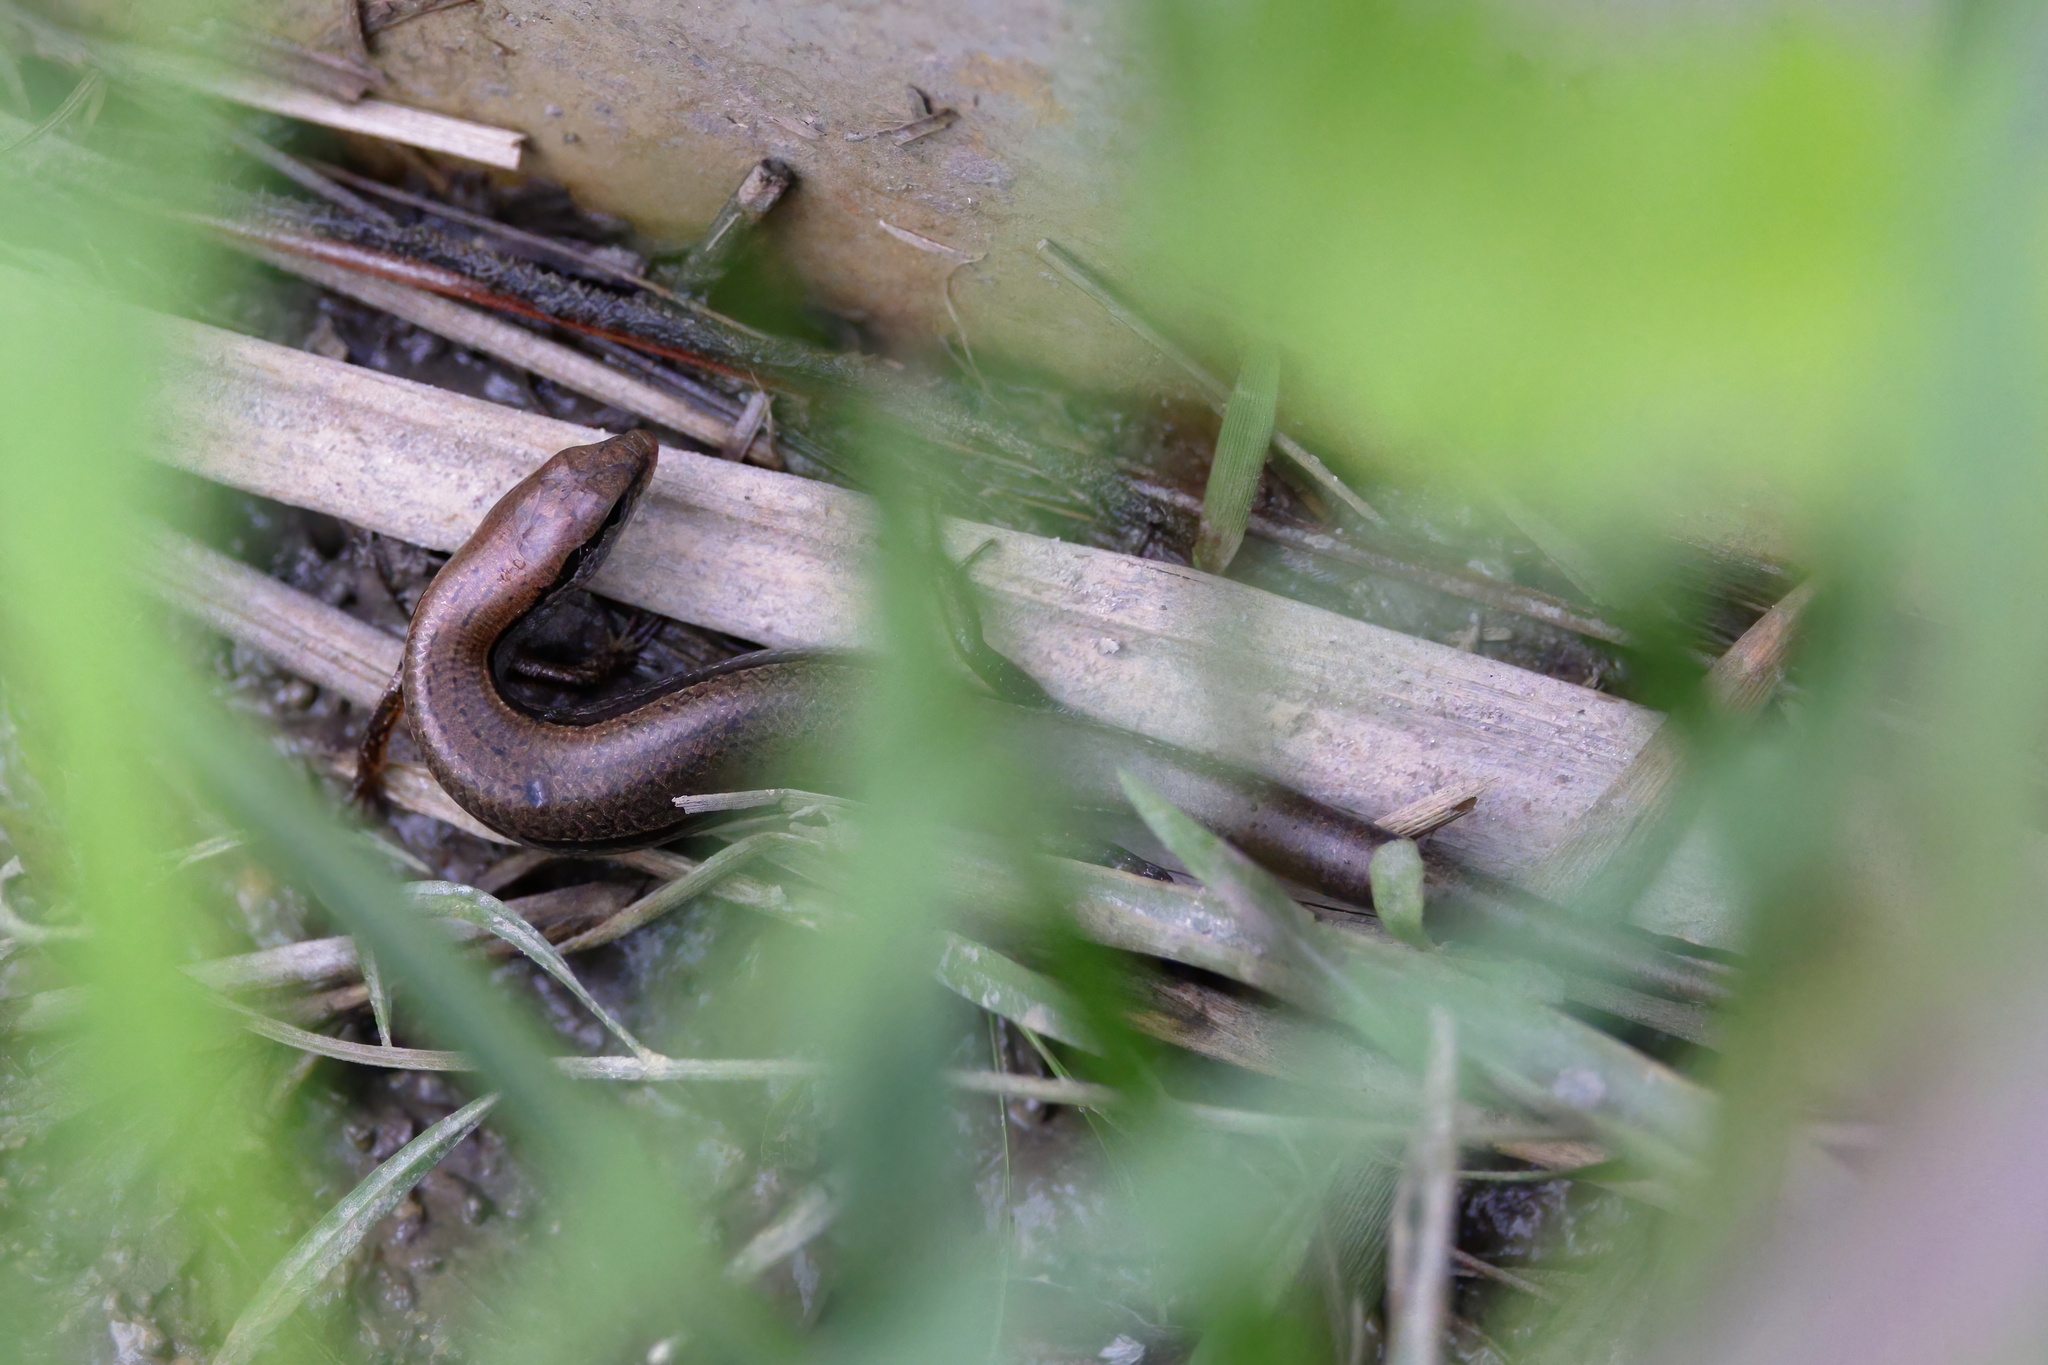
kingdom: Animalia
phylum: Chordata
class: Squamata
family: Scincidae
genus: Scincella
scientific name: Scincella lateralis
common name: Ground skink
